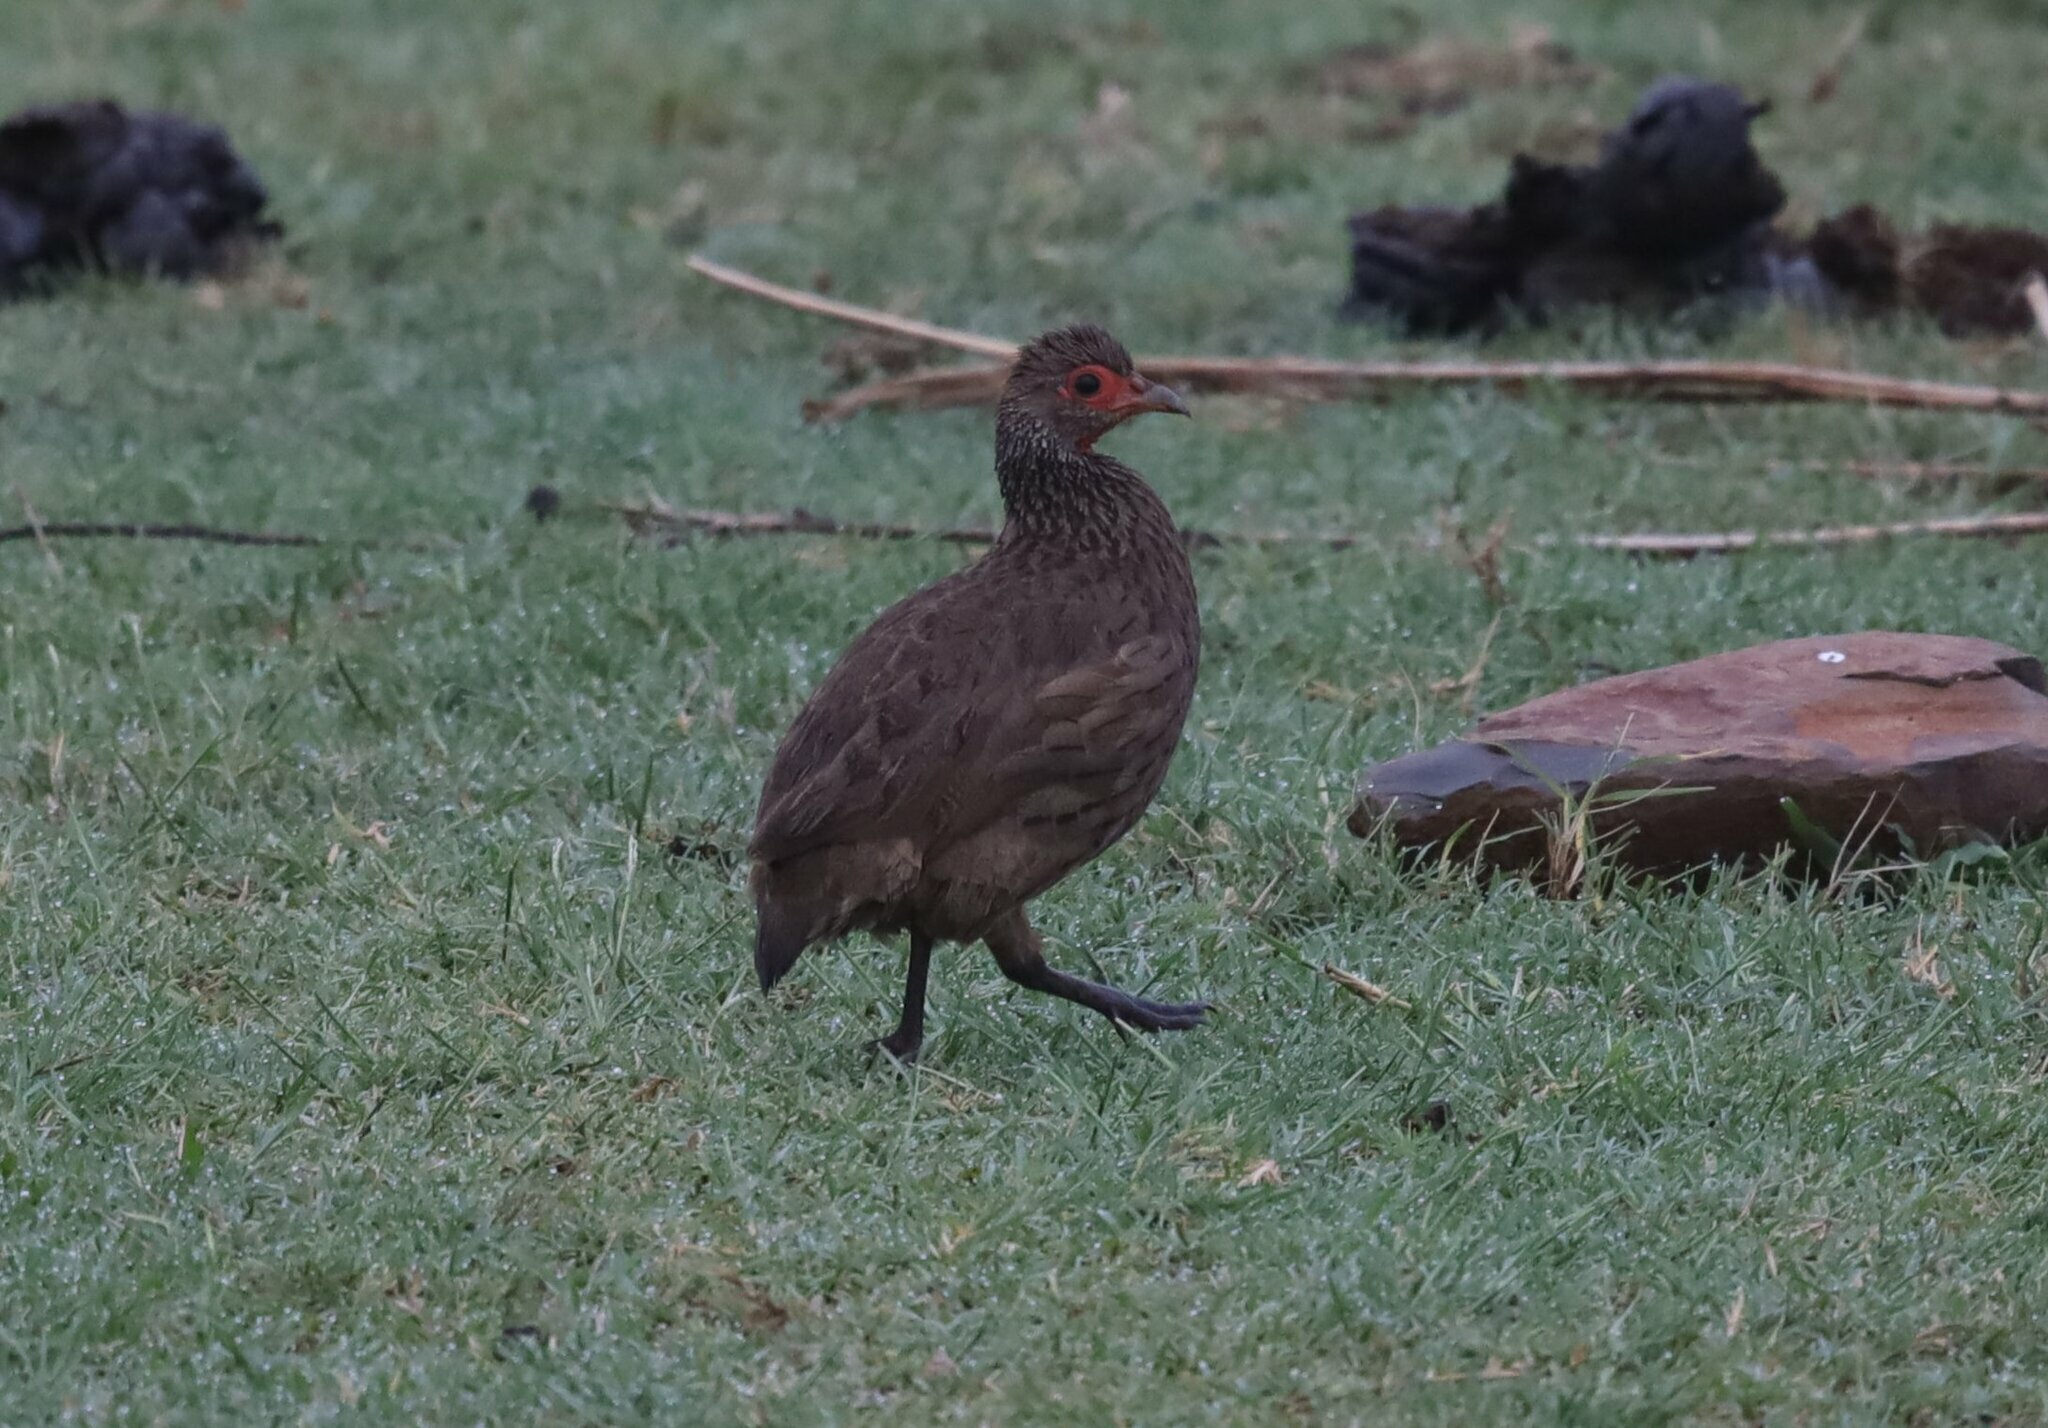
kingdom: Animalia
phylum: Chordata
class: Aves
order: Galliformes
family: Phasianidae
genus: Pternistis
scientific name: Pternistis swainsonii
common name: Swainson's spurfowl
